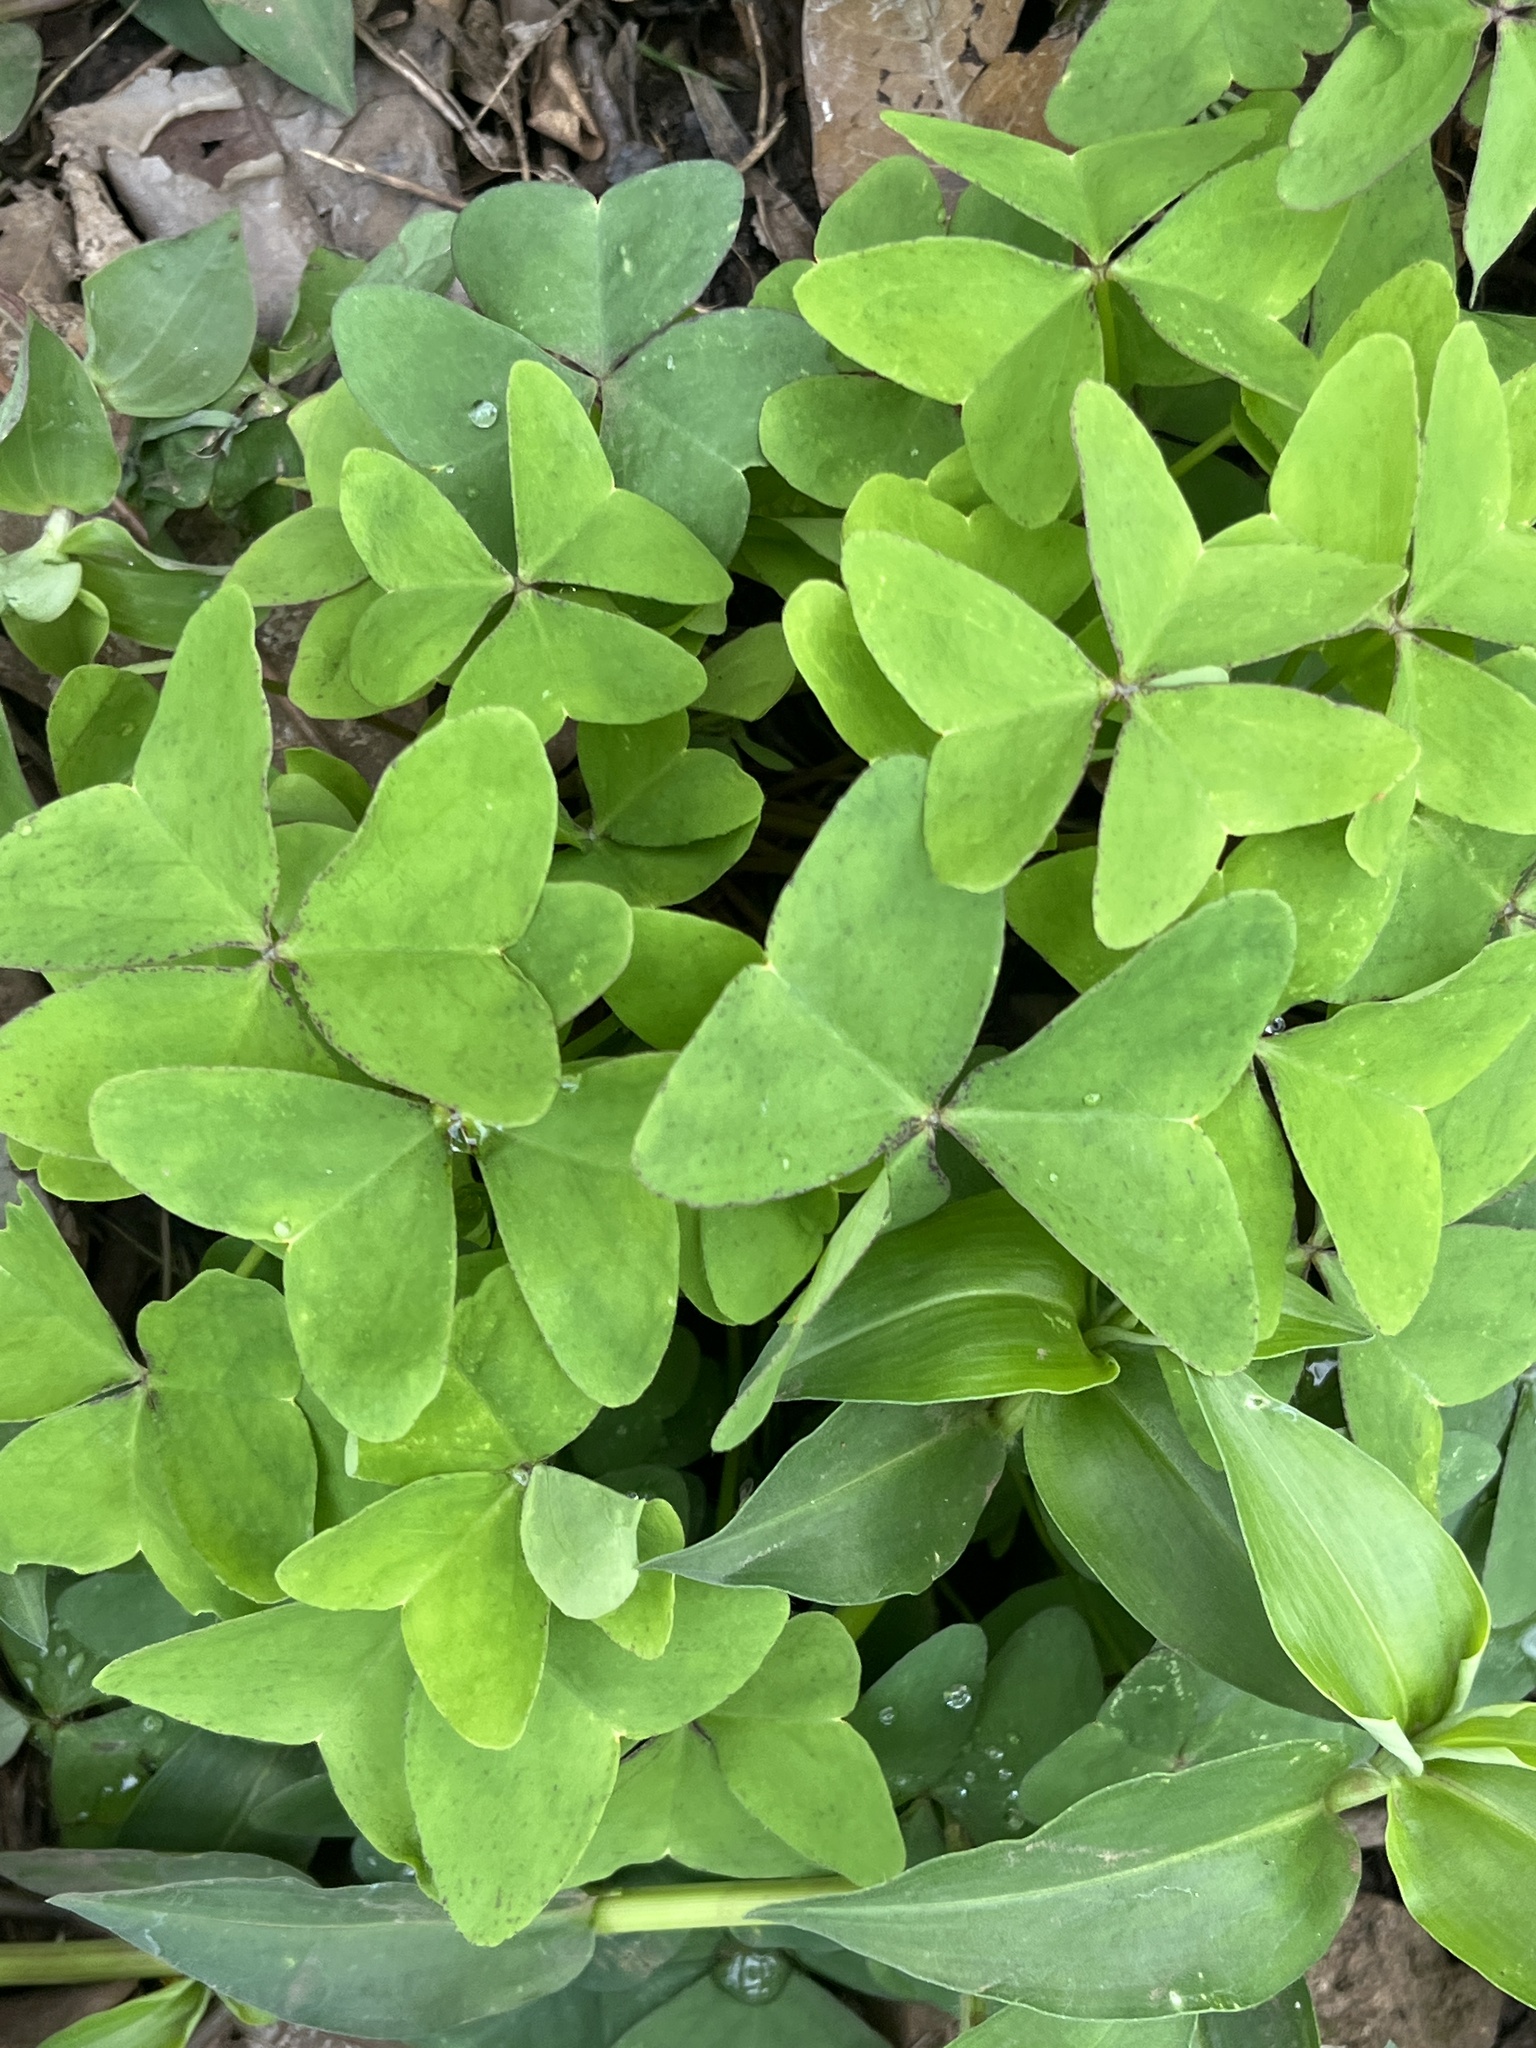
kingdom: Plantae
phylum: Tracheophyta
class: Magnoliopsida
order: Oxalidales
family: Oxalidaceae
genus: Oxalis
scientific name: Oxalis latifolia
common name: Garden pink-sorrel
